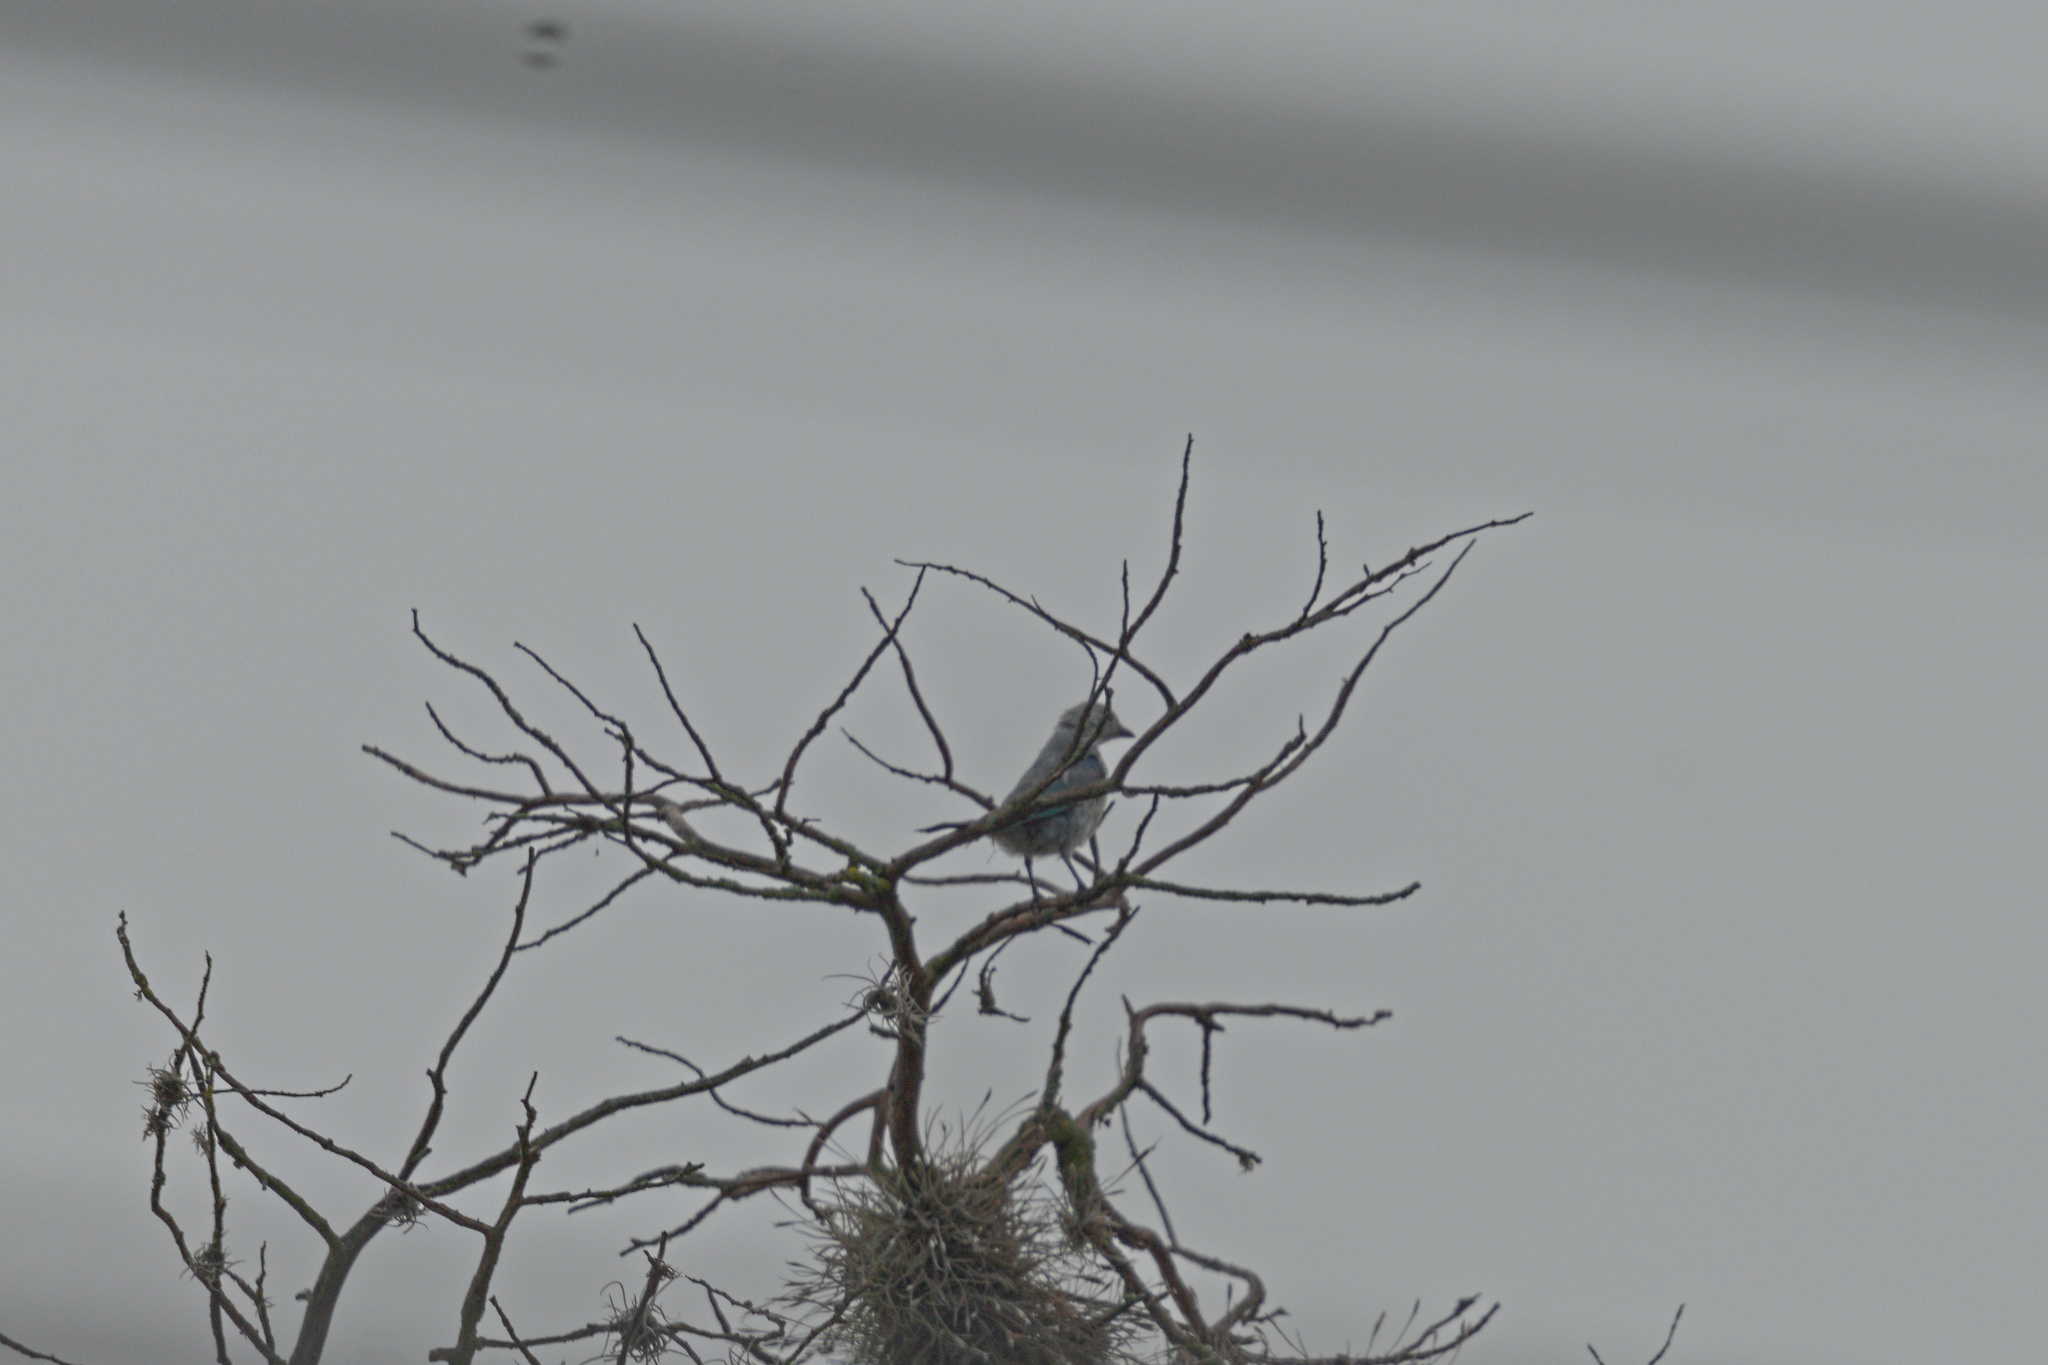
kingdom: Animalia
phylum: Chordata
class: Aves
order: Passeriformes
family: Thraupidae
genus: Thraupis
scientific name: Thraupis episcopus
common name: Blue-grey tanager
